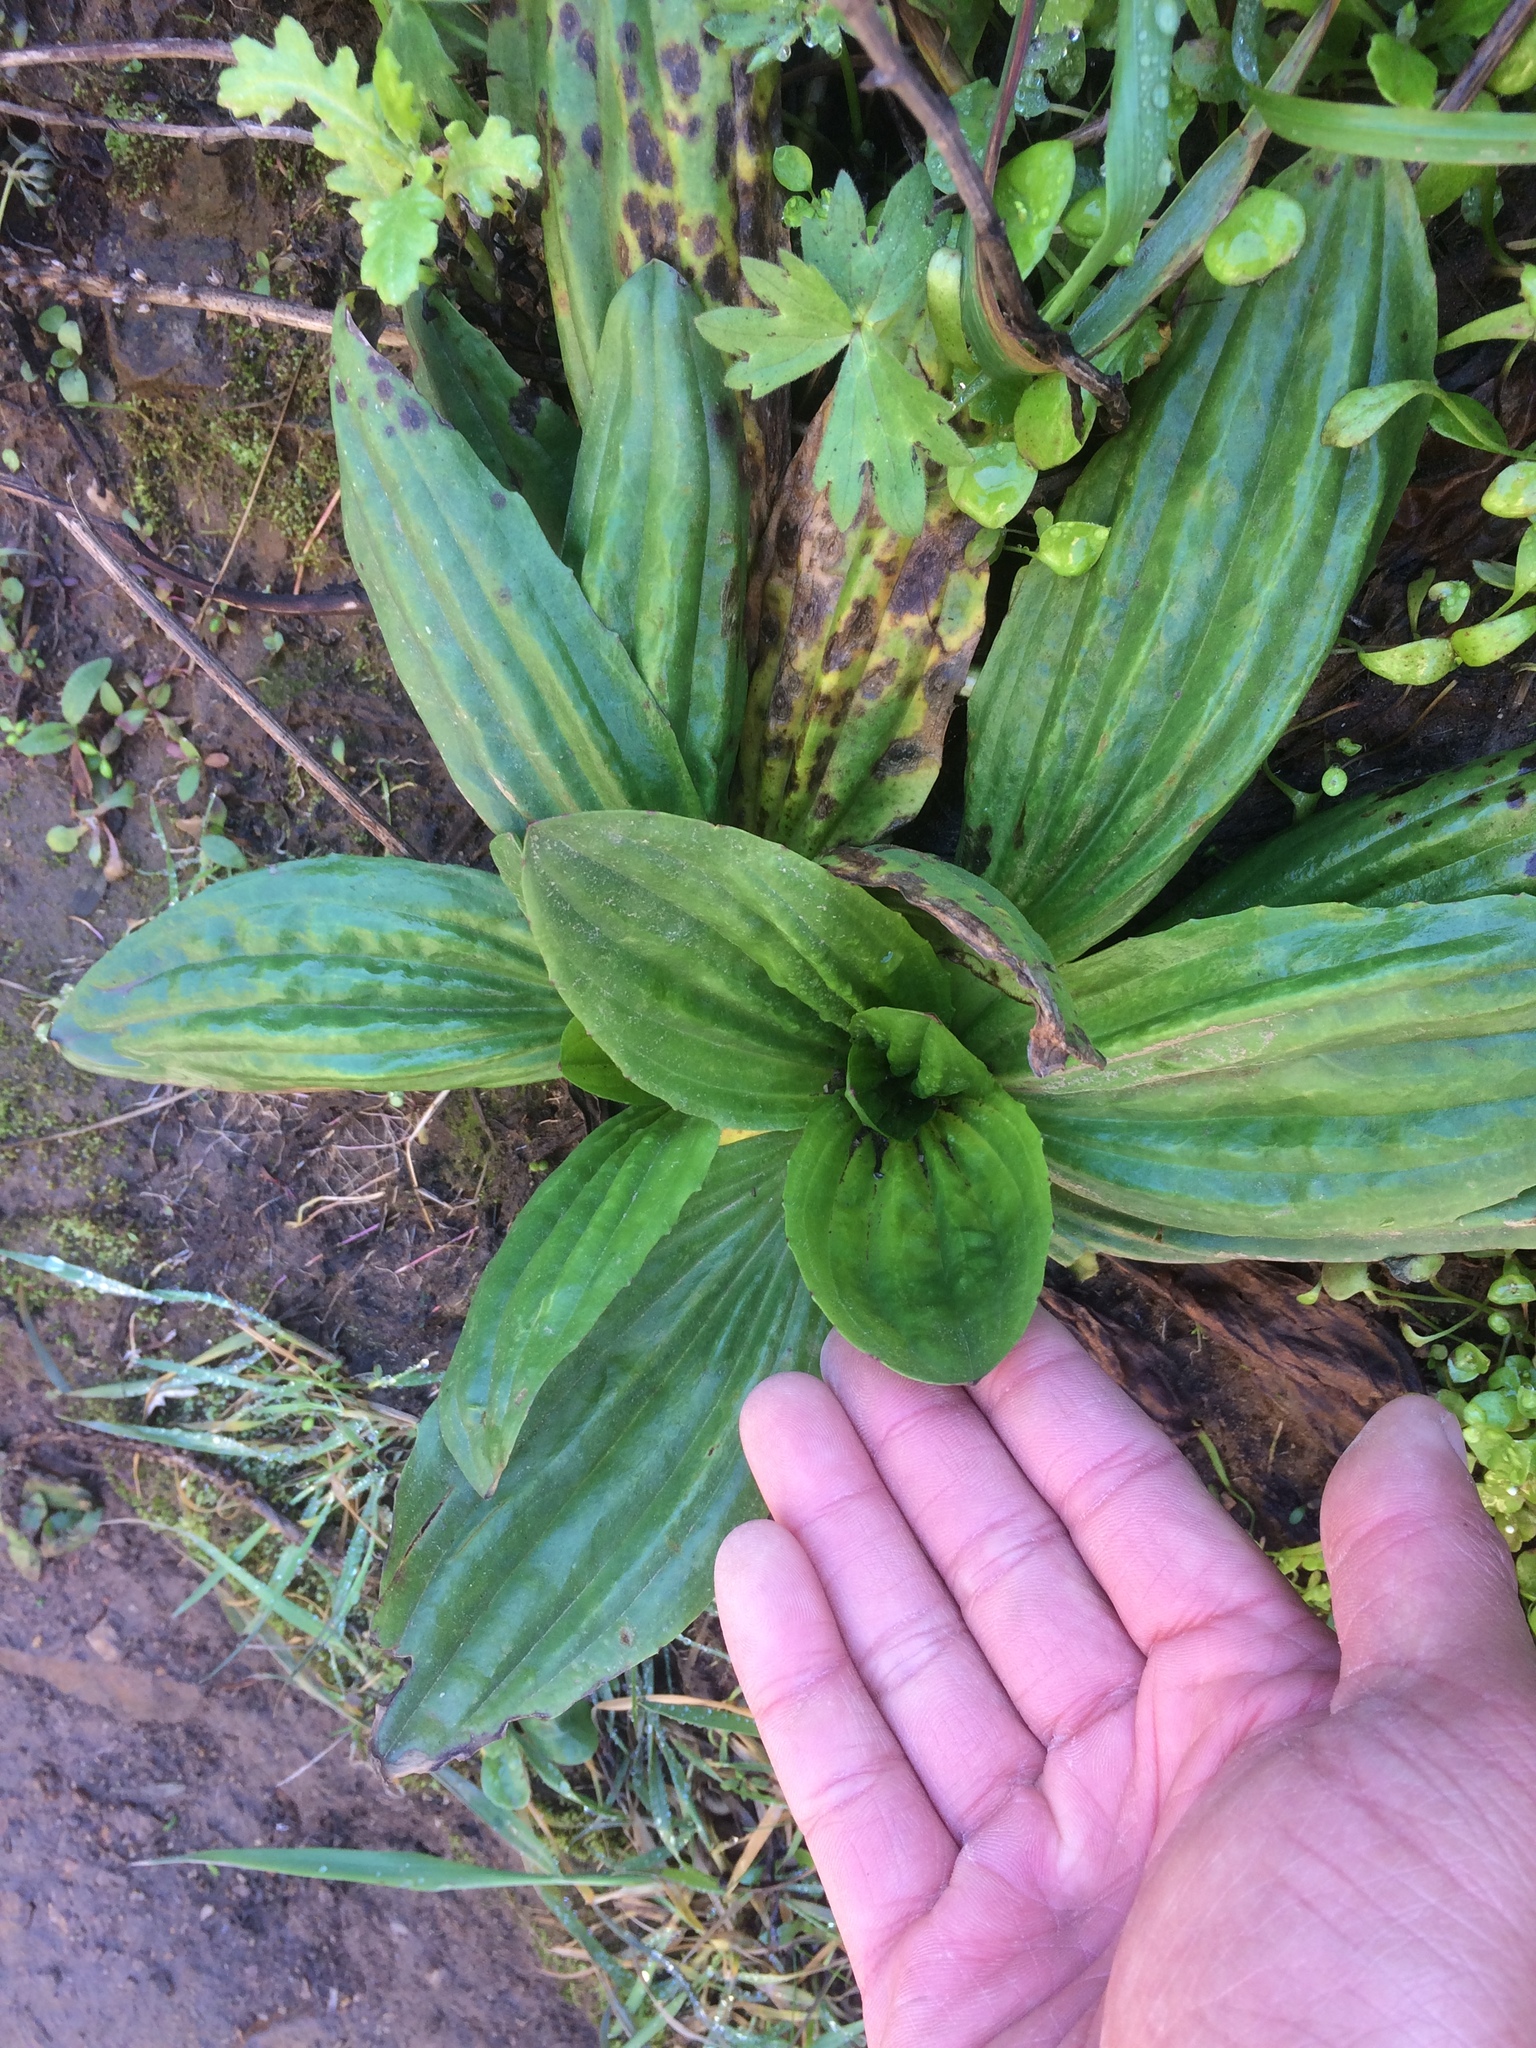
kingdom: Plantae
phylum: Tracheophyta
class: Magnoliopsida
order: Lamiales
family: Plantaginaceae
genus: Plantago
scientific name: Plantago subnuda
